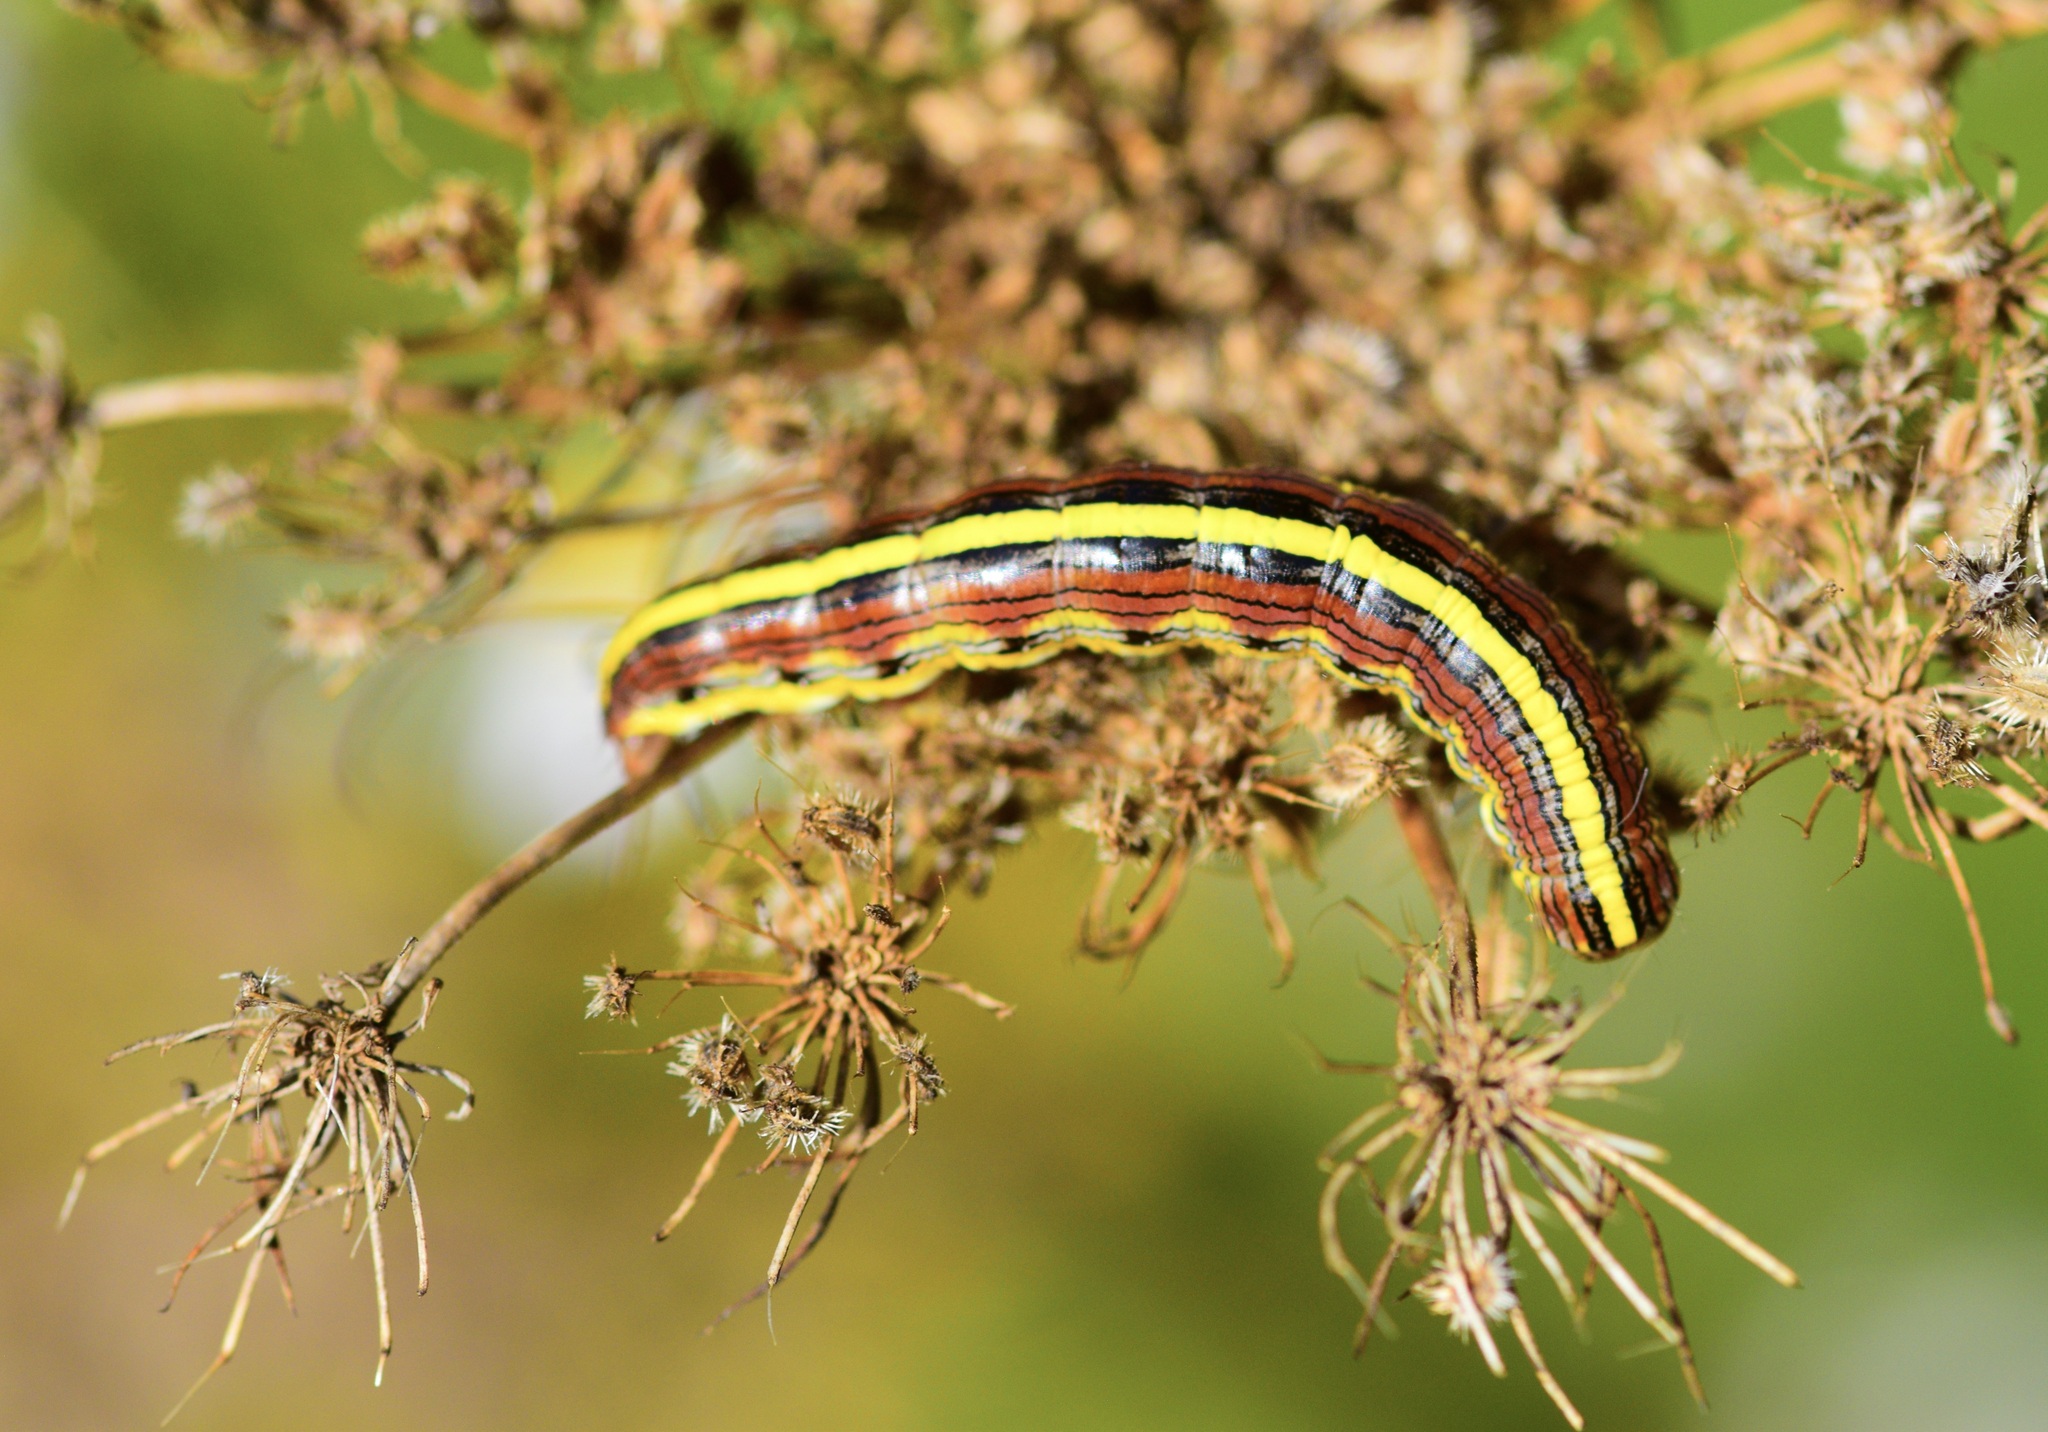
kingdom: Animalia
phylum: Arthropoda
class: Insecta
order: Lepidoptera
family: Noctuidae
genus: Cucullia
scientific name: Cucullia asteroides
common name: Asteroid moth
